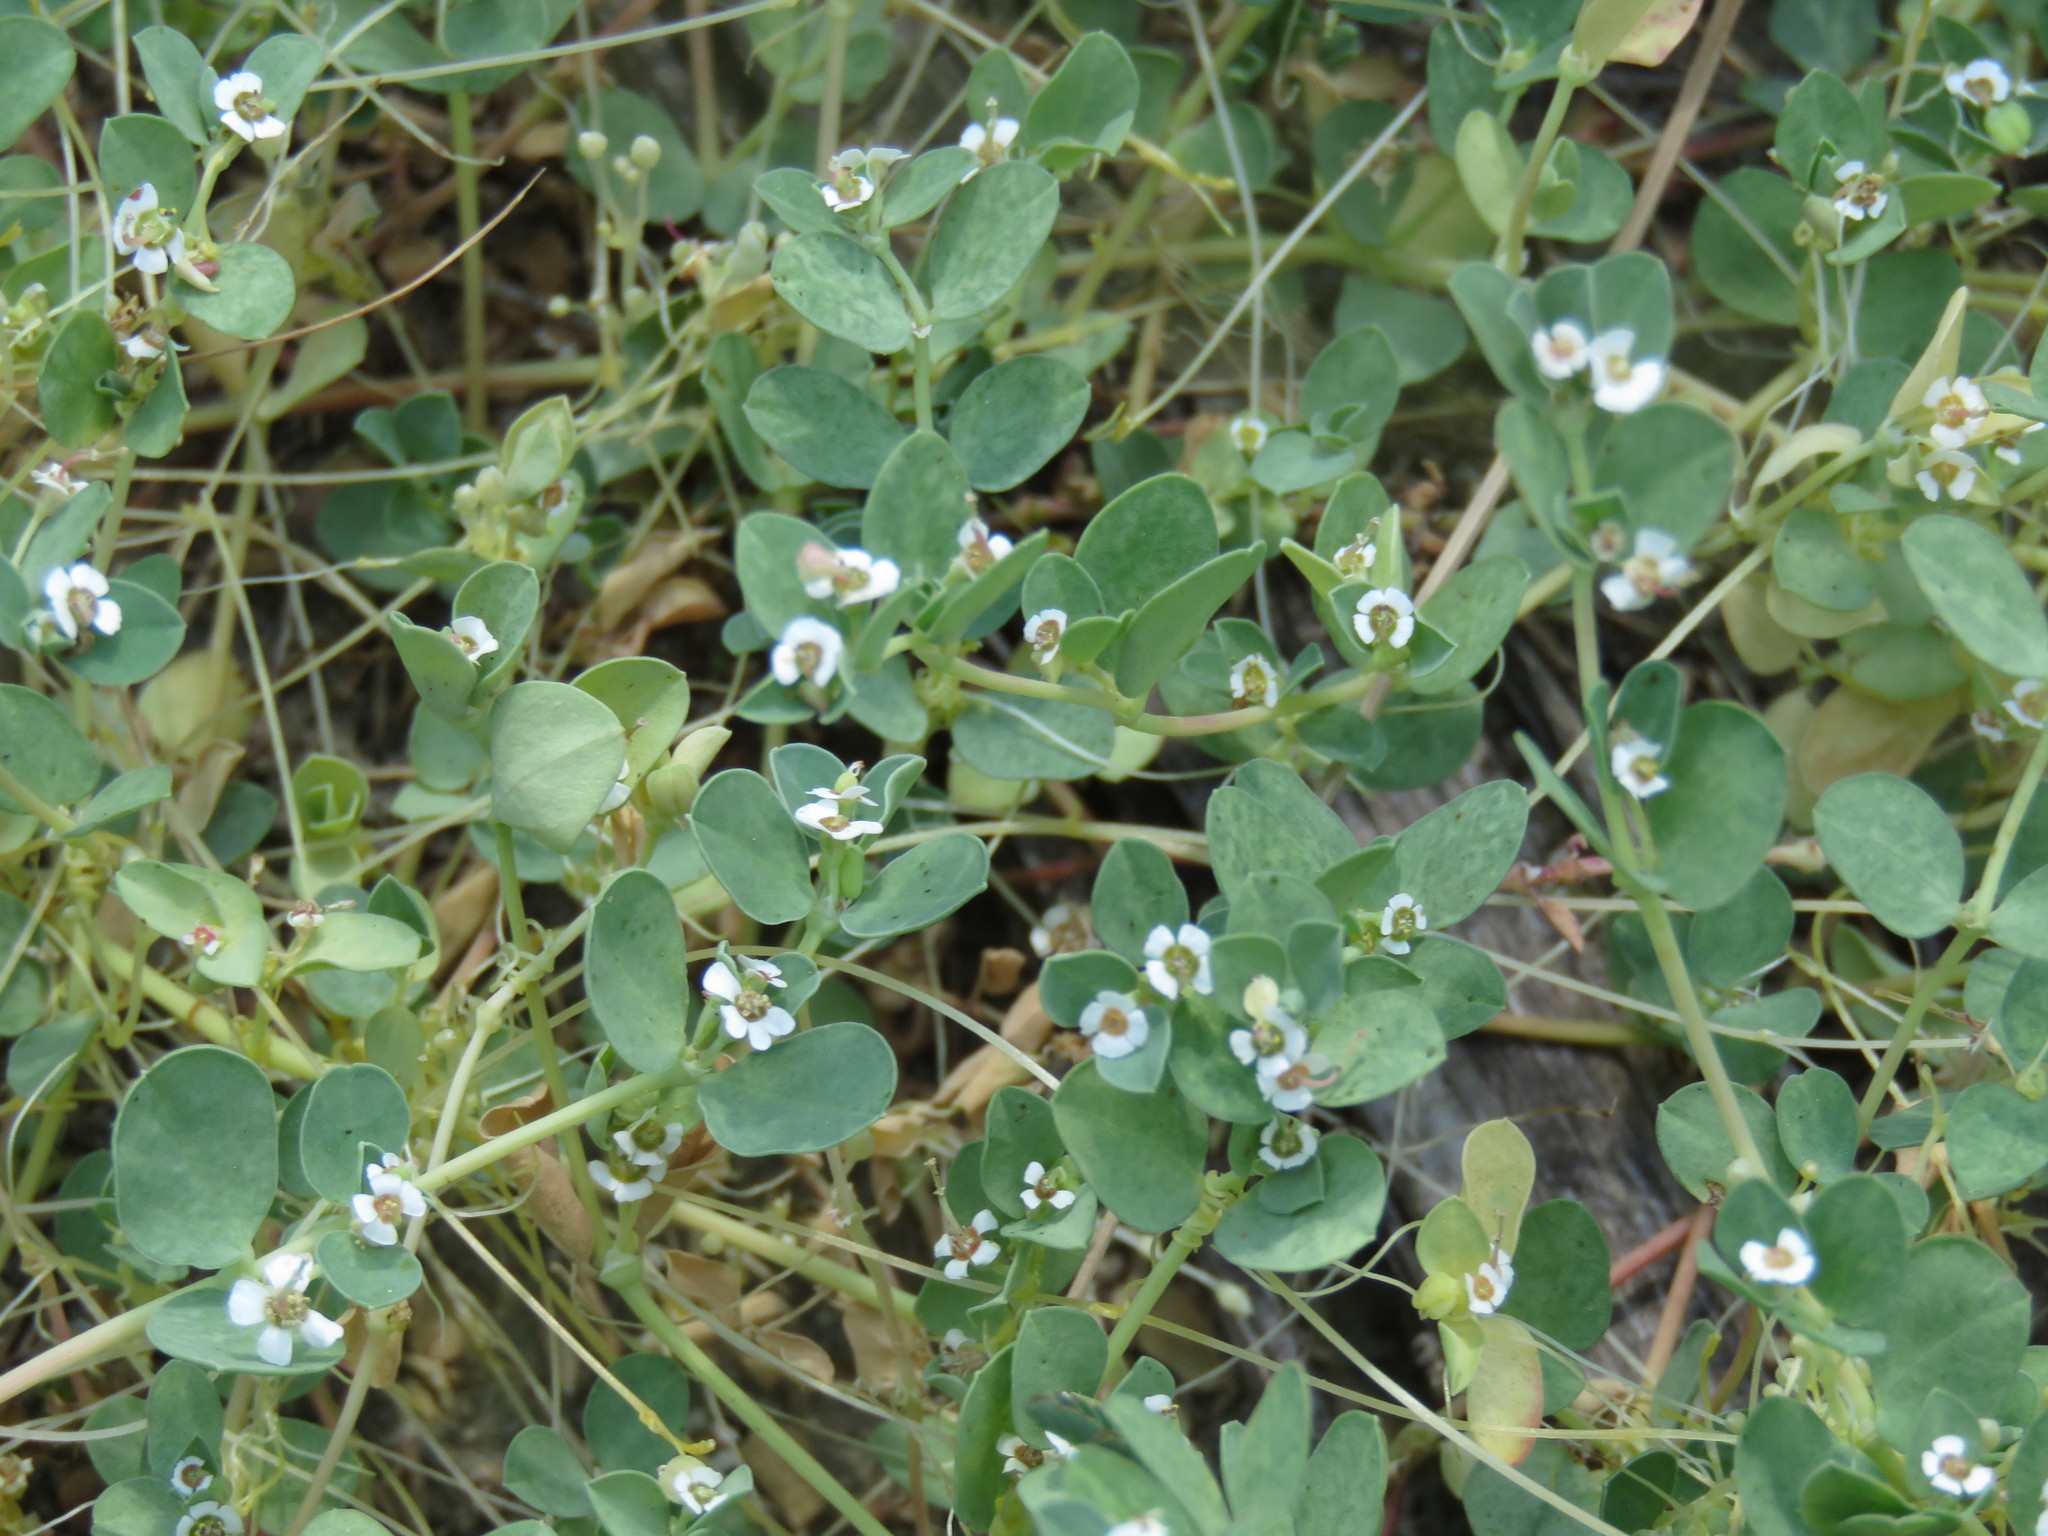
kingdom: Plantae
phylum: Tracheophyta
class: Magnoliopsida
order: Malpighiales
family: Euphorbiaceae
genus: Euphorbia
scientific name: Euphorbia albomarginata
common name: Whitemargin sandmat
